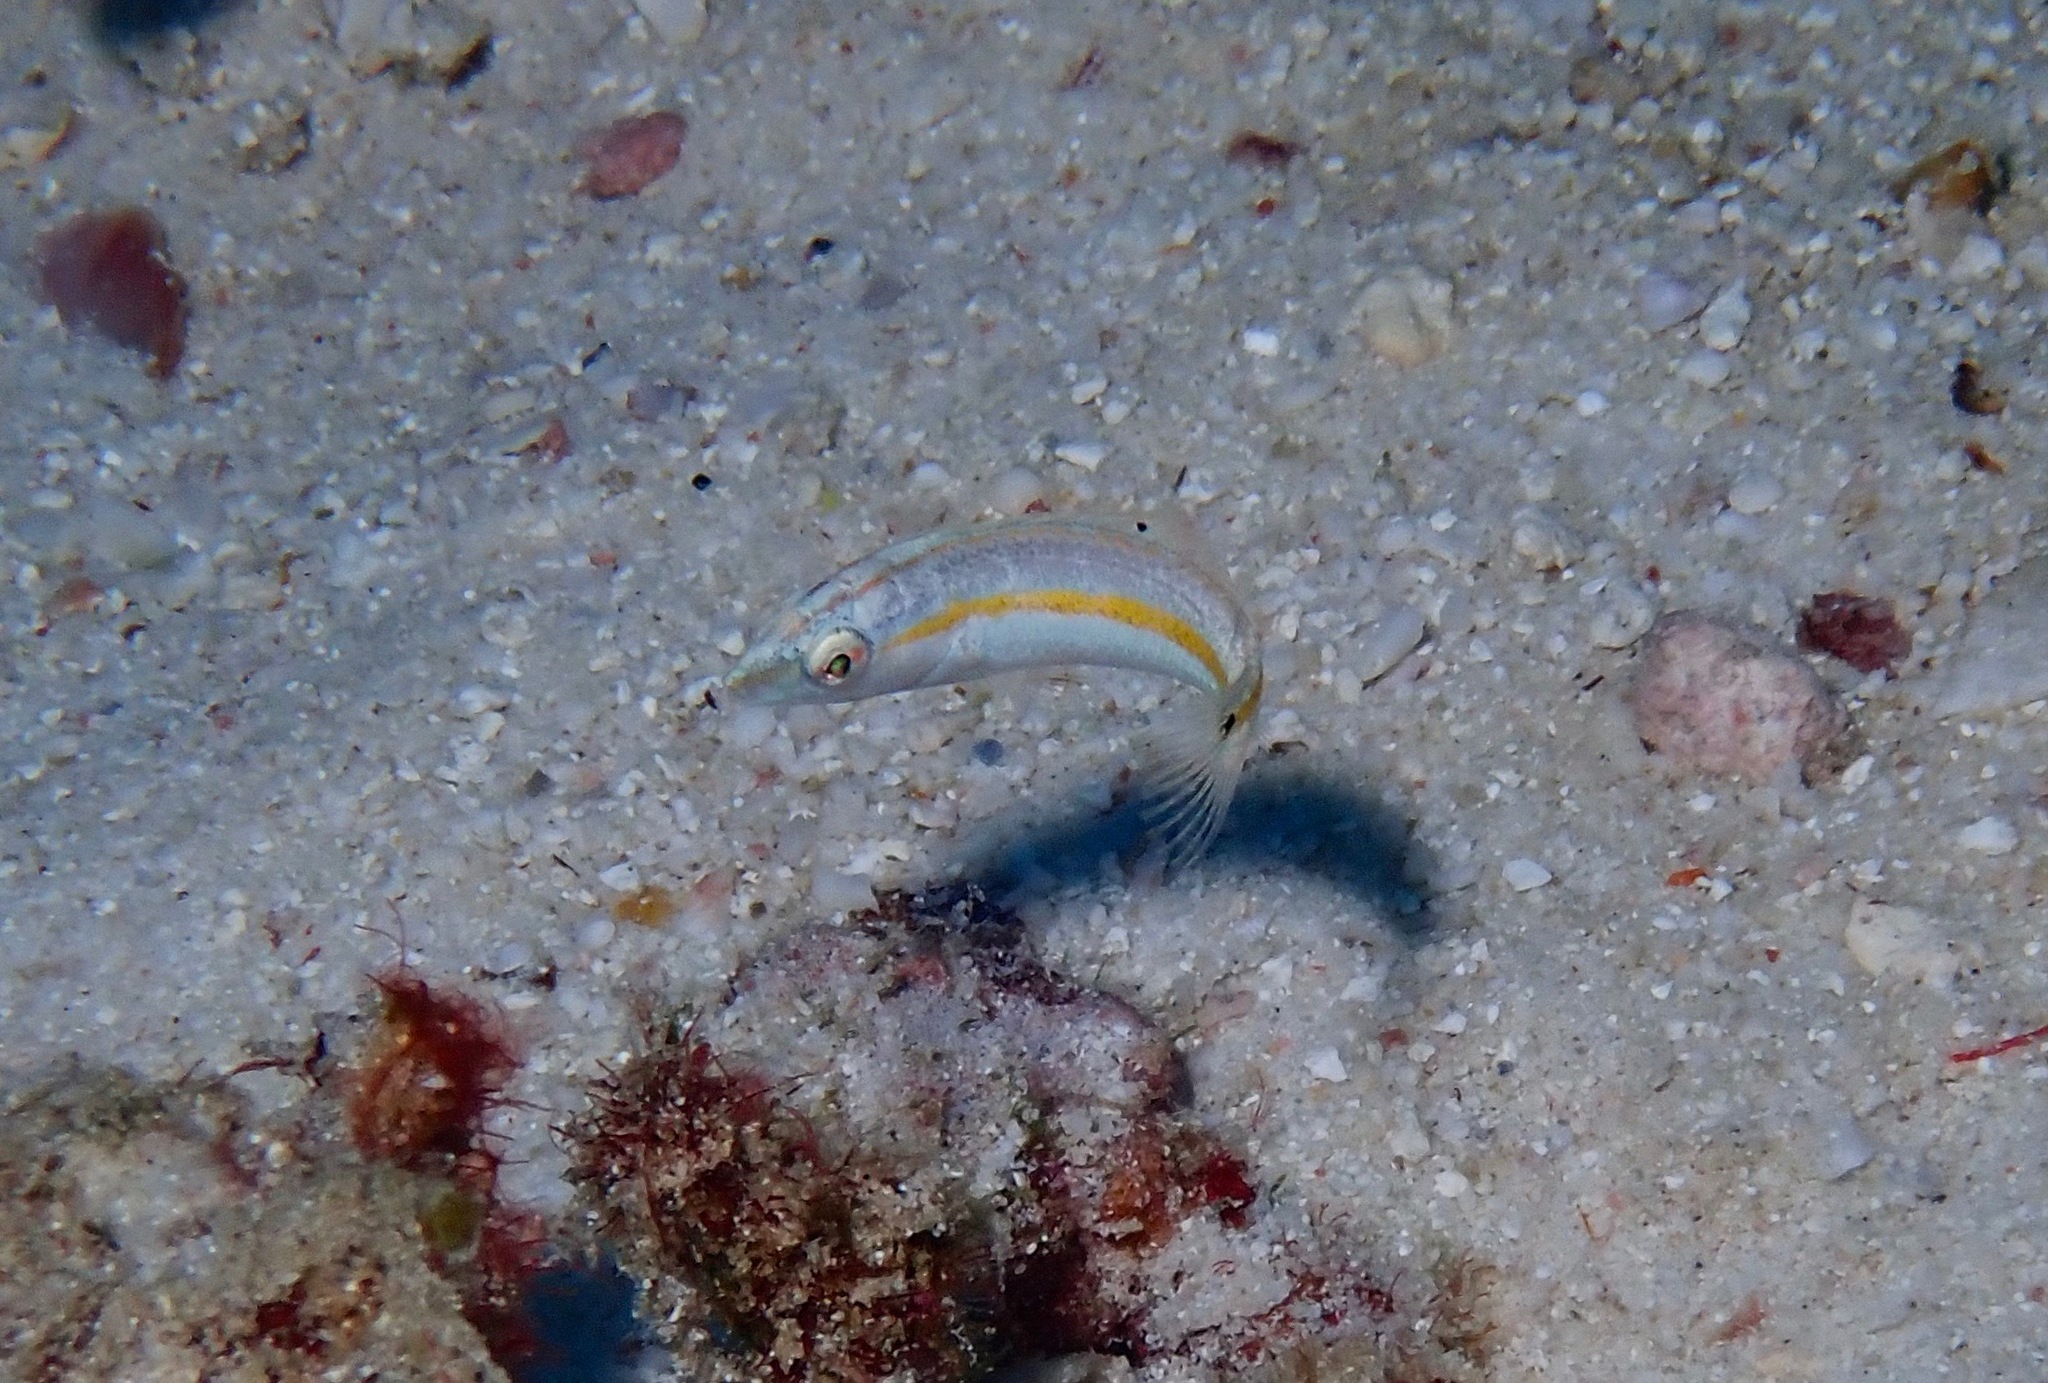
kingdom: Animalia
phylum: Chordata
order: Perciformes
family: Labridae
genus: Halichoeres
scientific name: Halichoeres zeylonicus
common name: Goldstripe wrasse
